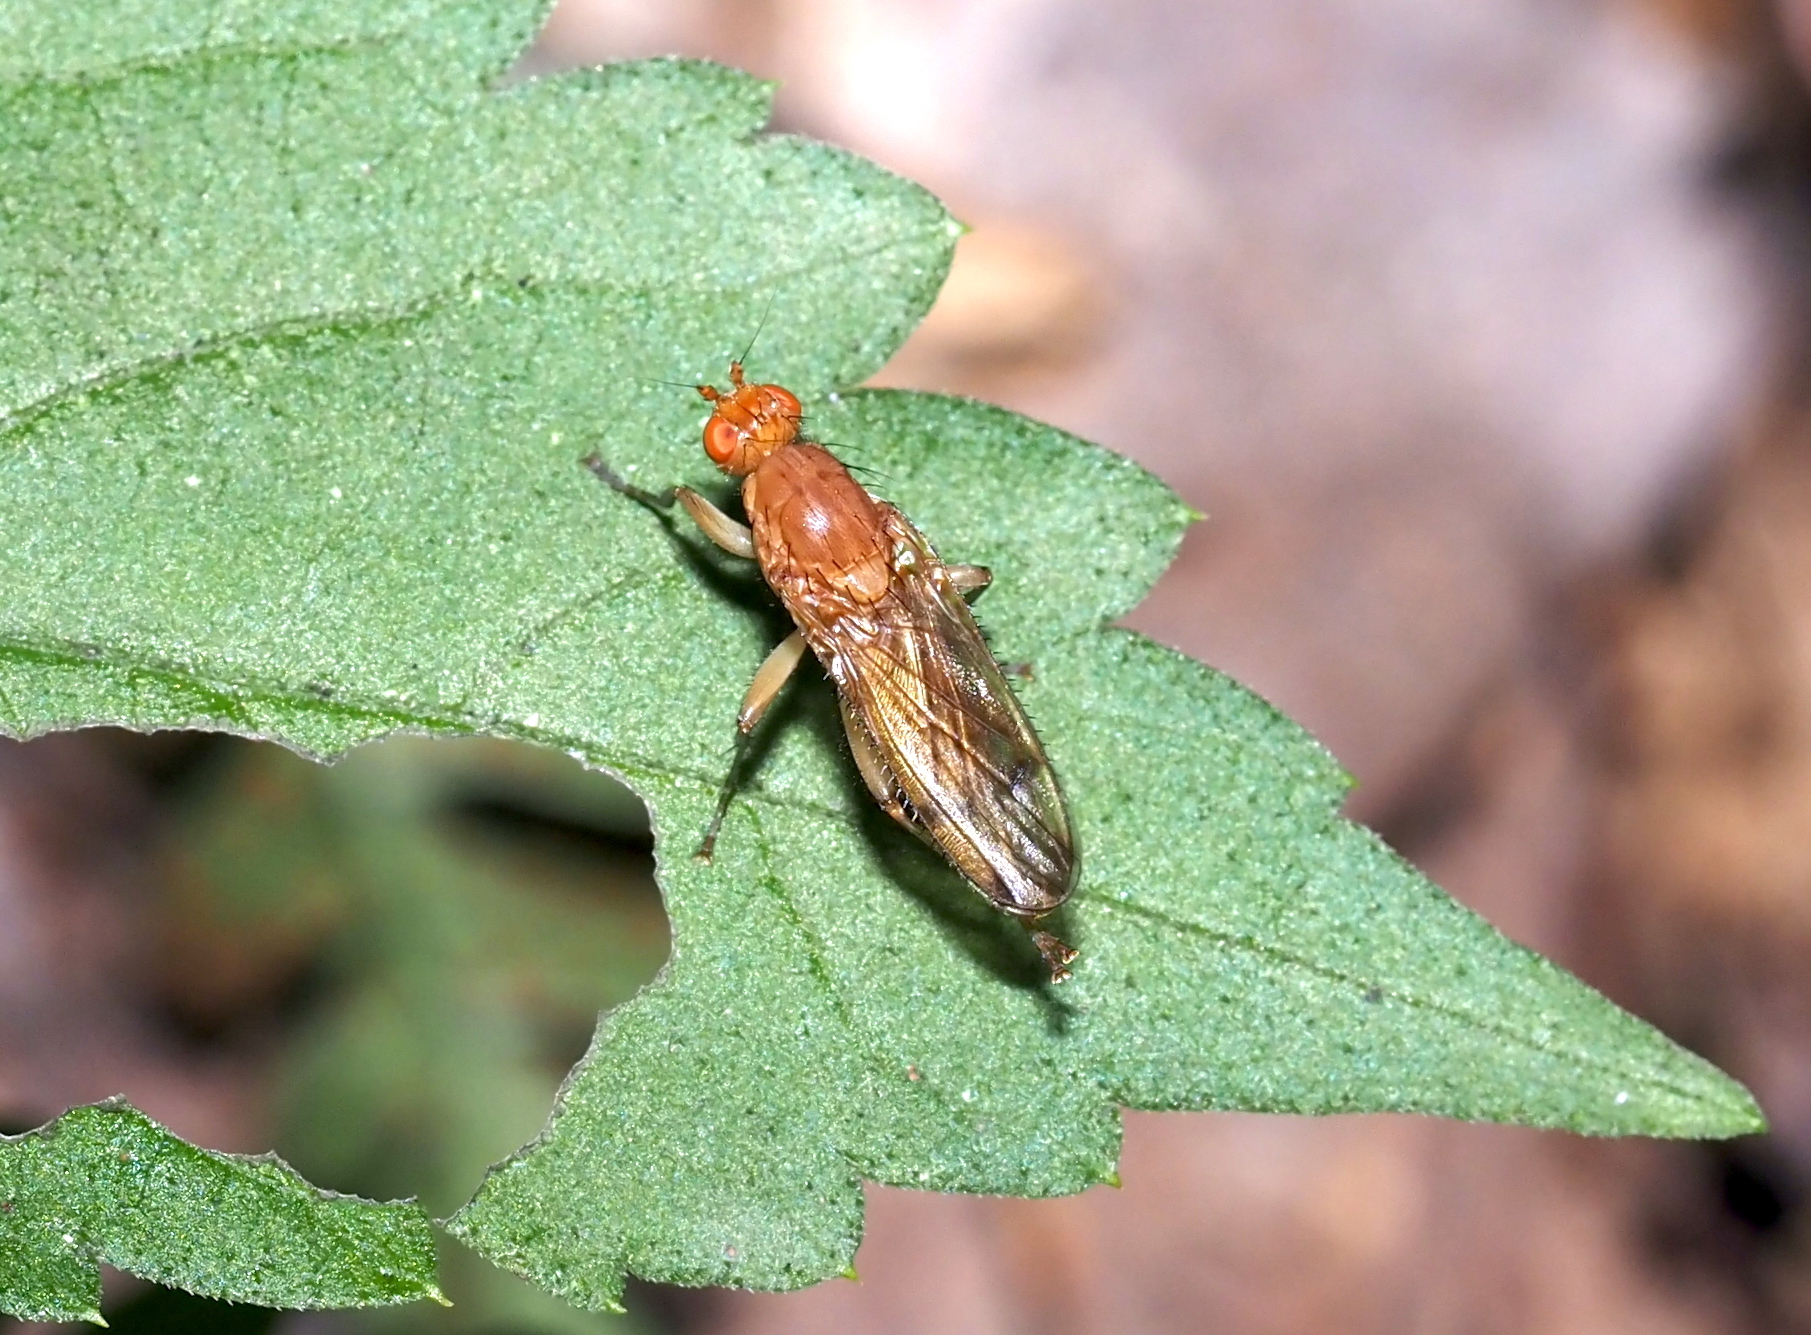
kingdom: Animalia
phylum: Arthropoda
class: Insecta
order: Diptera
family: Heleomyzidae
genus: Amoebaleria
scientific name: Amoebaleria helvola
